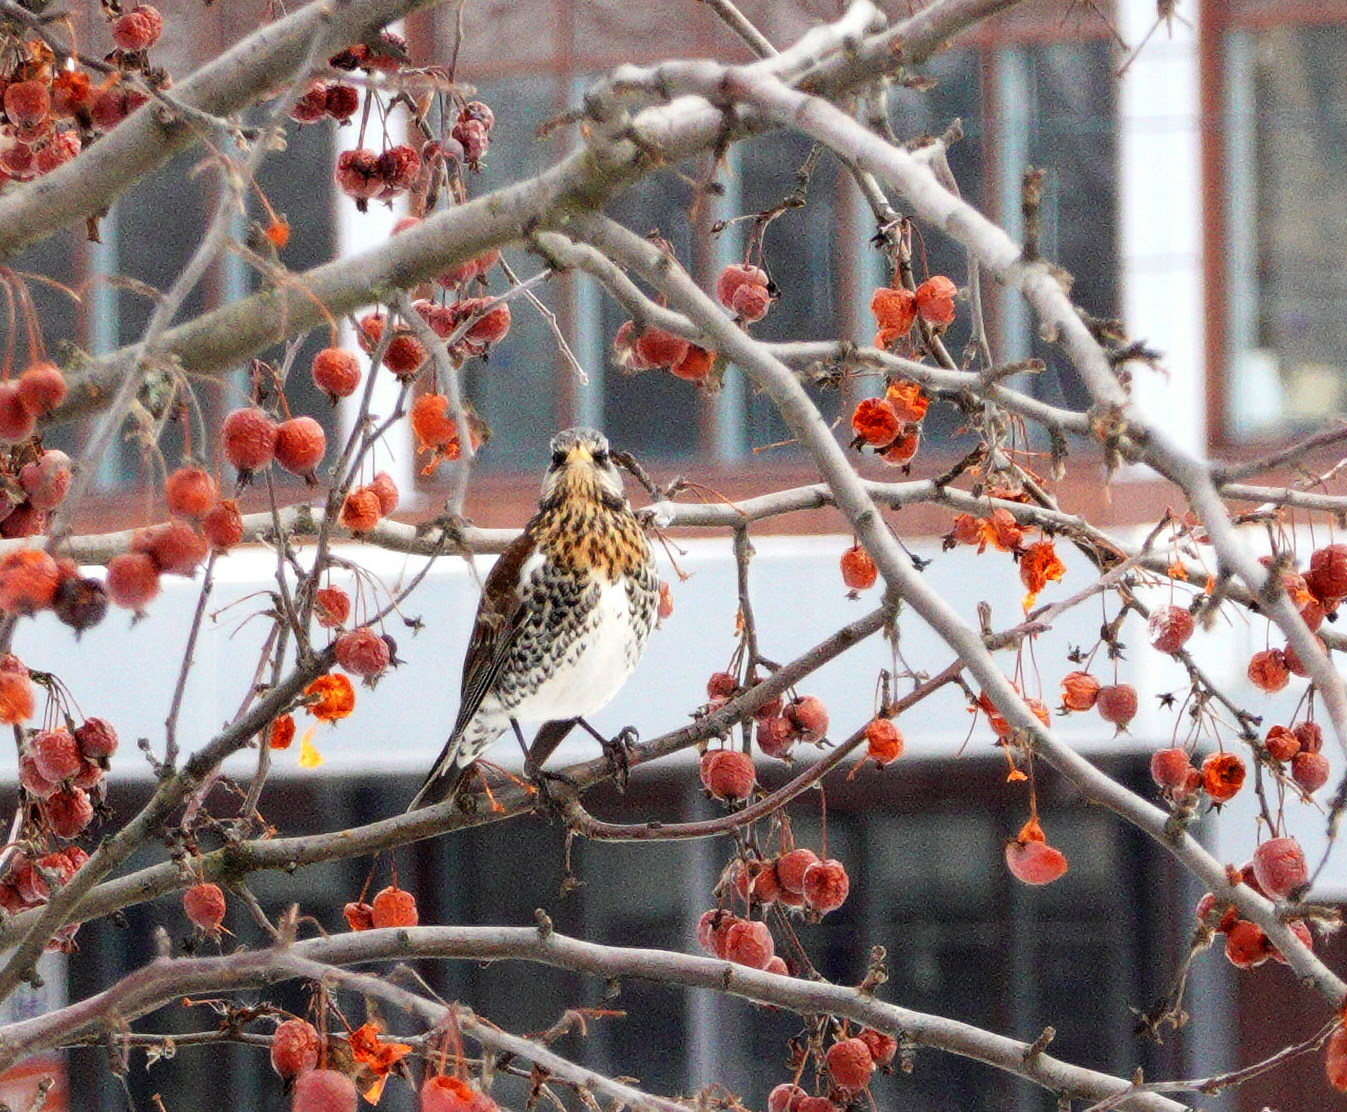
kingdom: Animalia
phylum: Chordata
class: Aves
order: Passeriformes
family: Turdidae
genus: Turdus
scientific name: Turdus pilaris
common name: Fieldfare
